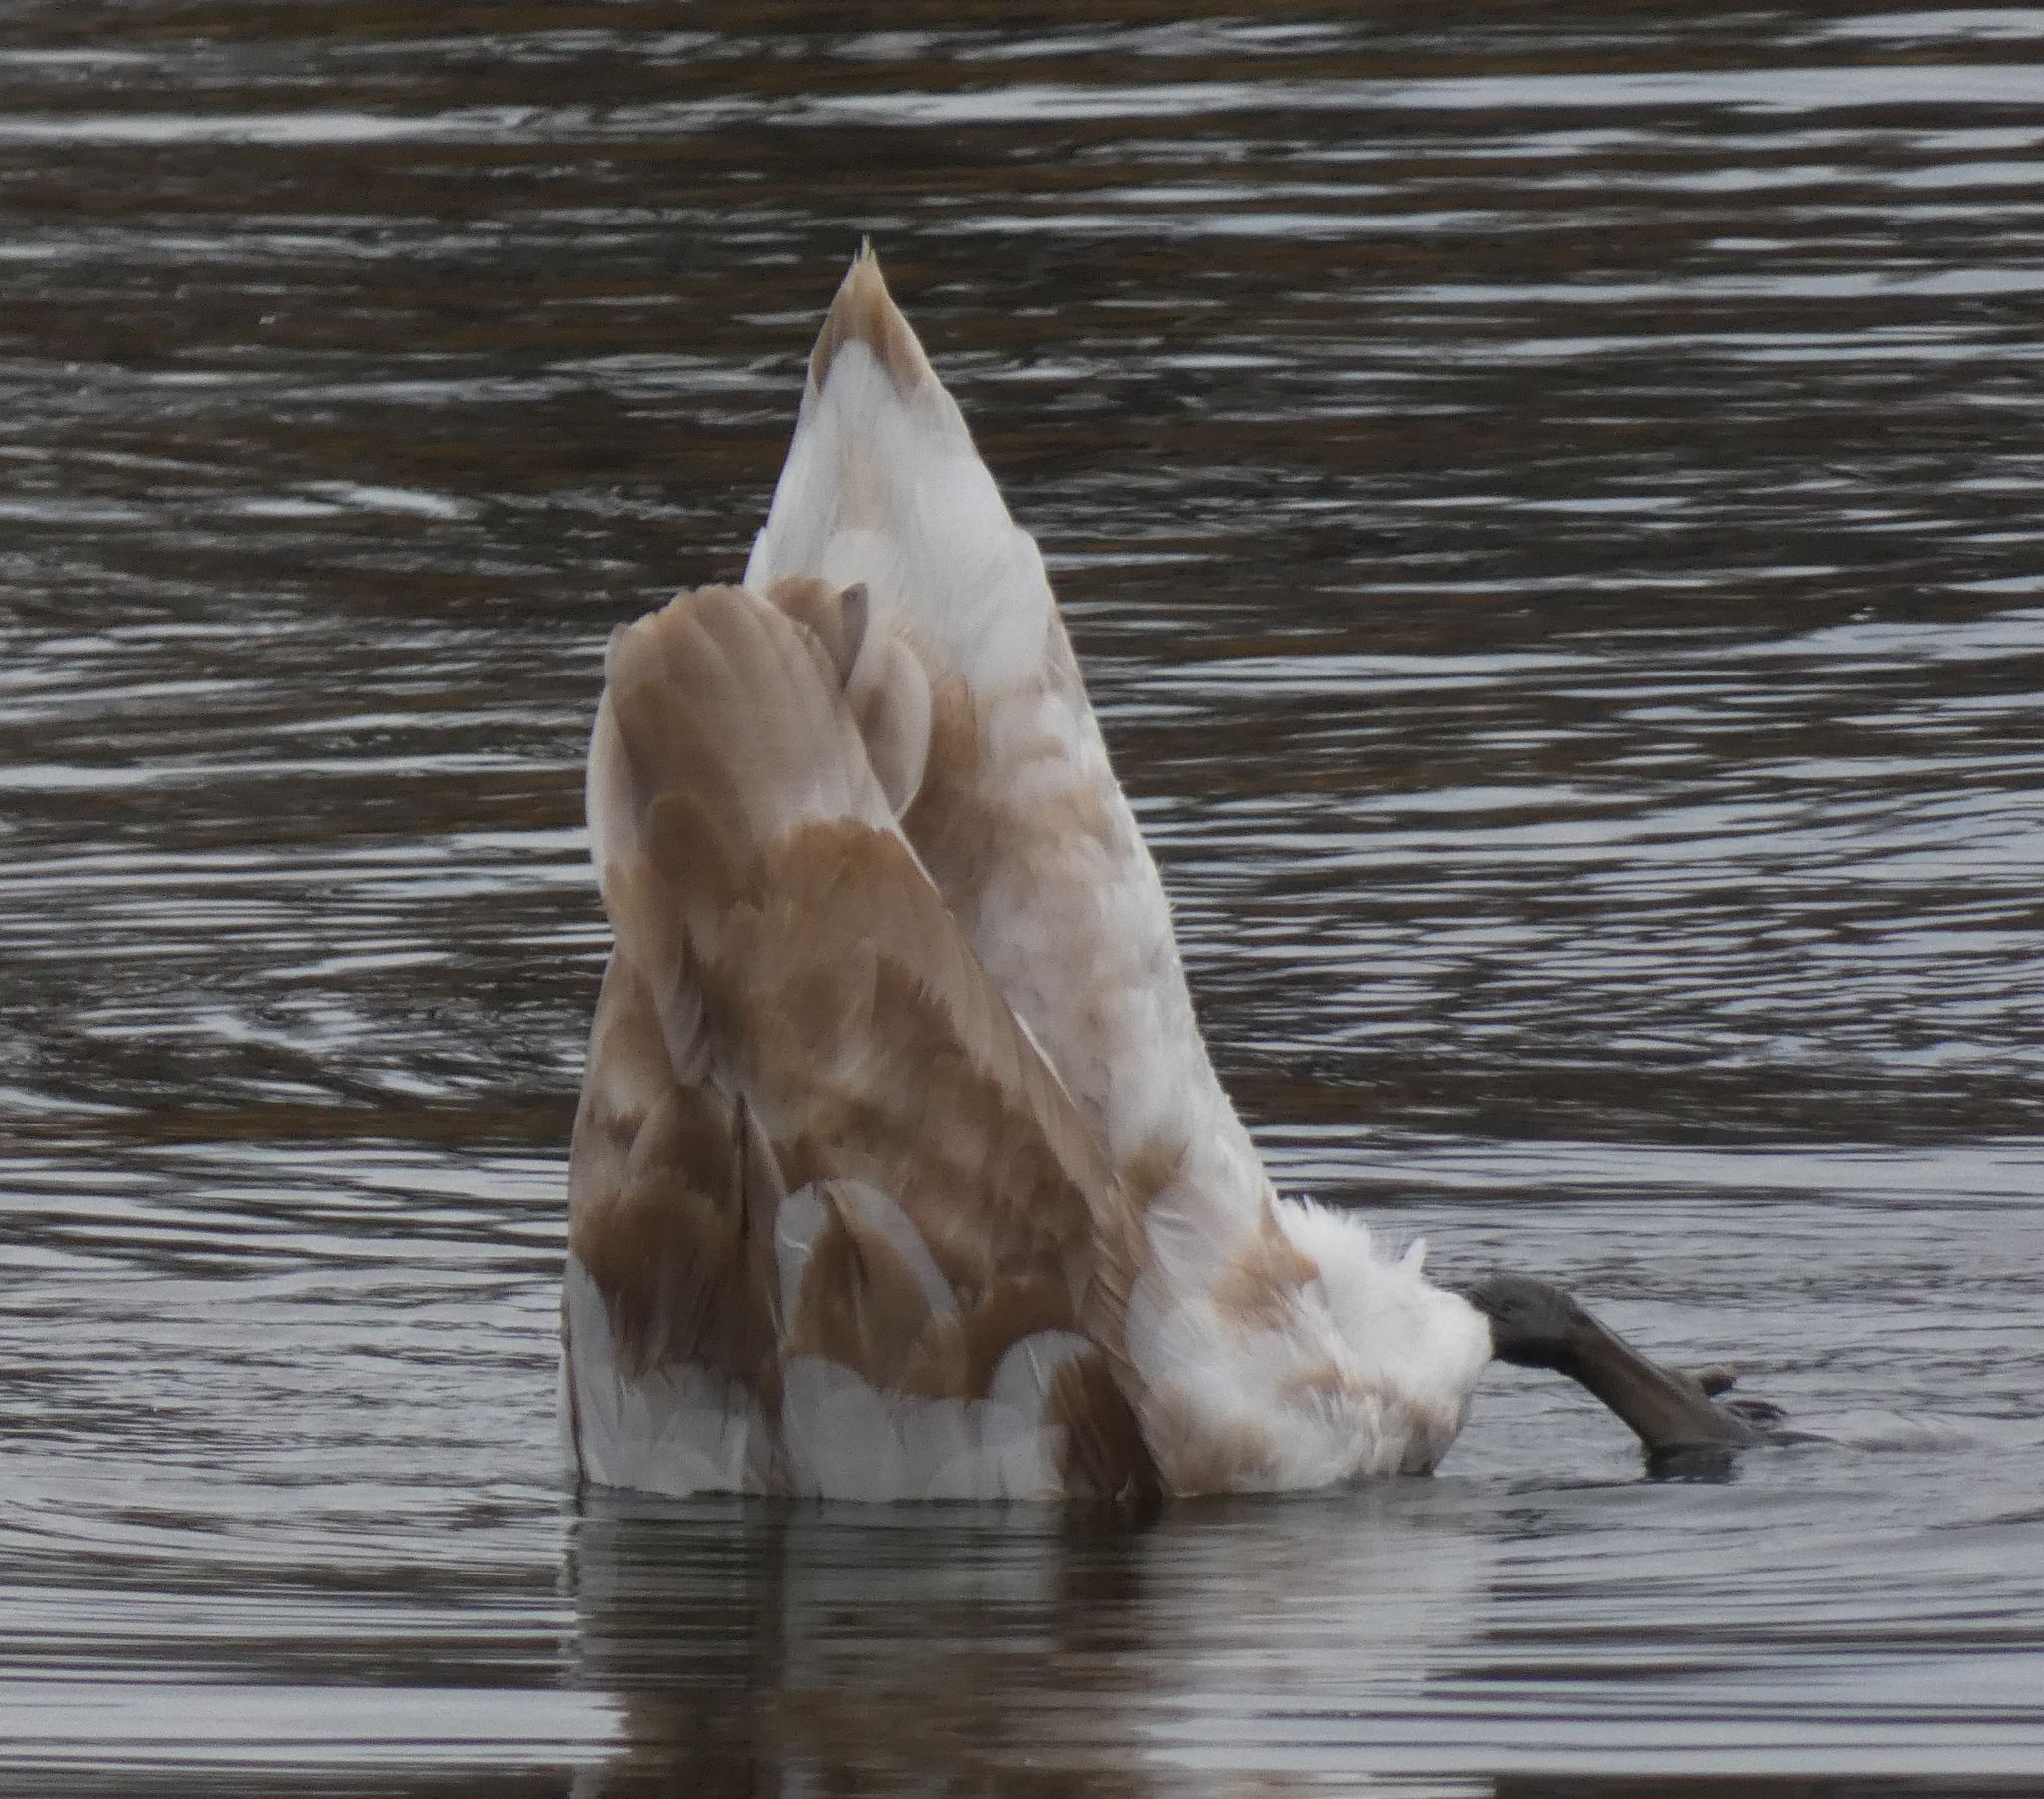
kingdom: Animalia
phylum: Chordata
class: Aves
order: Anseriformes
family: Anatidae
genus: Cygnus
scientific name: Cygnus olor
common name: Mute swan
